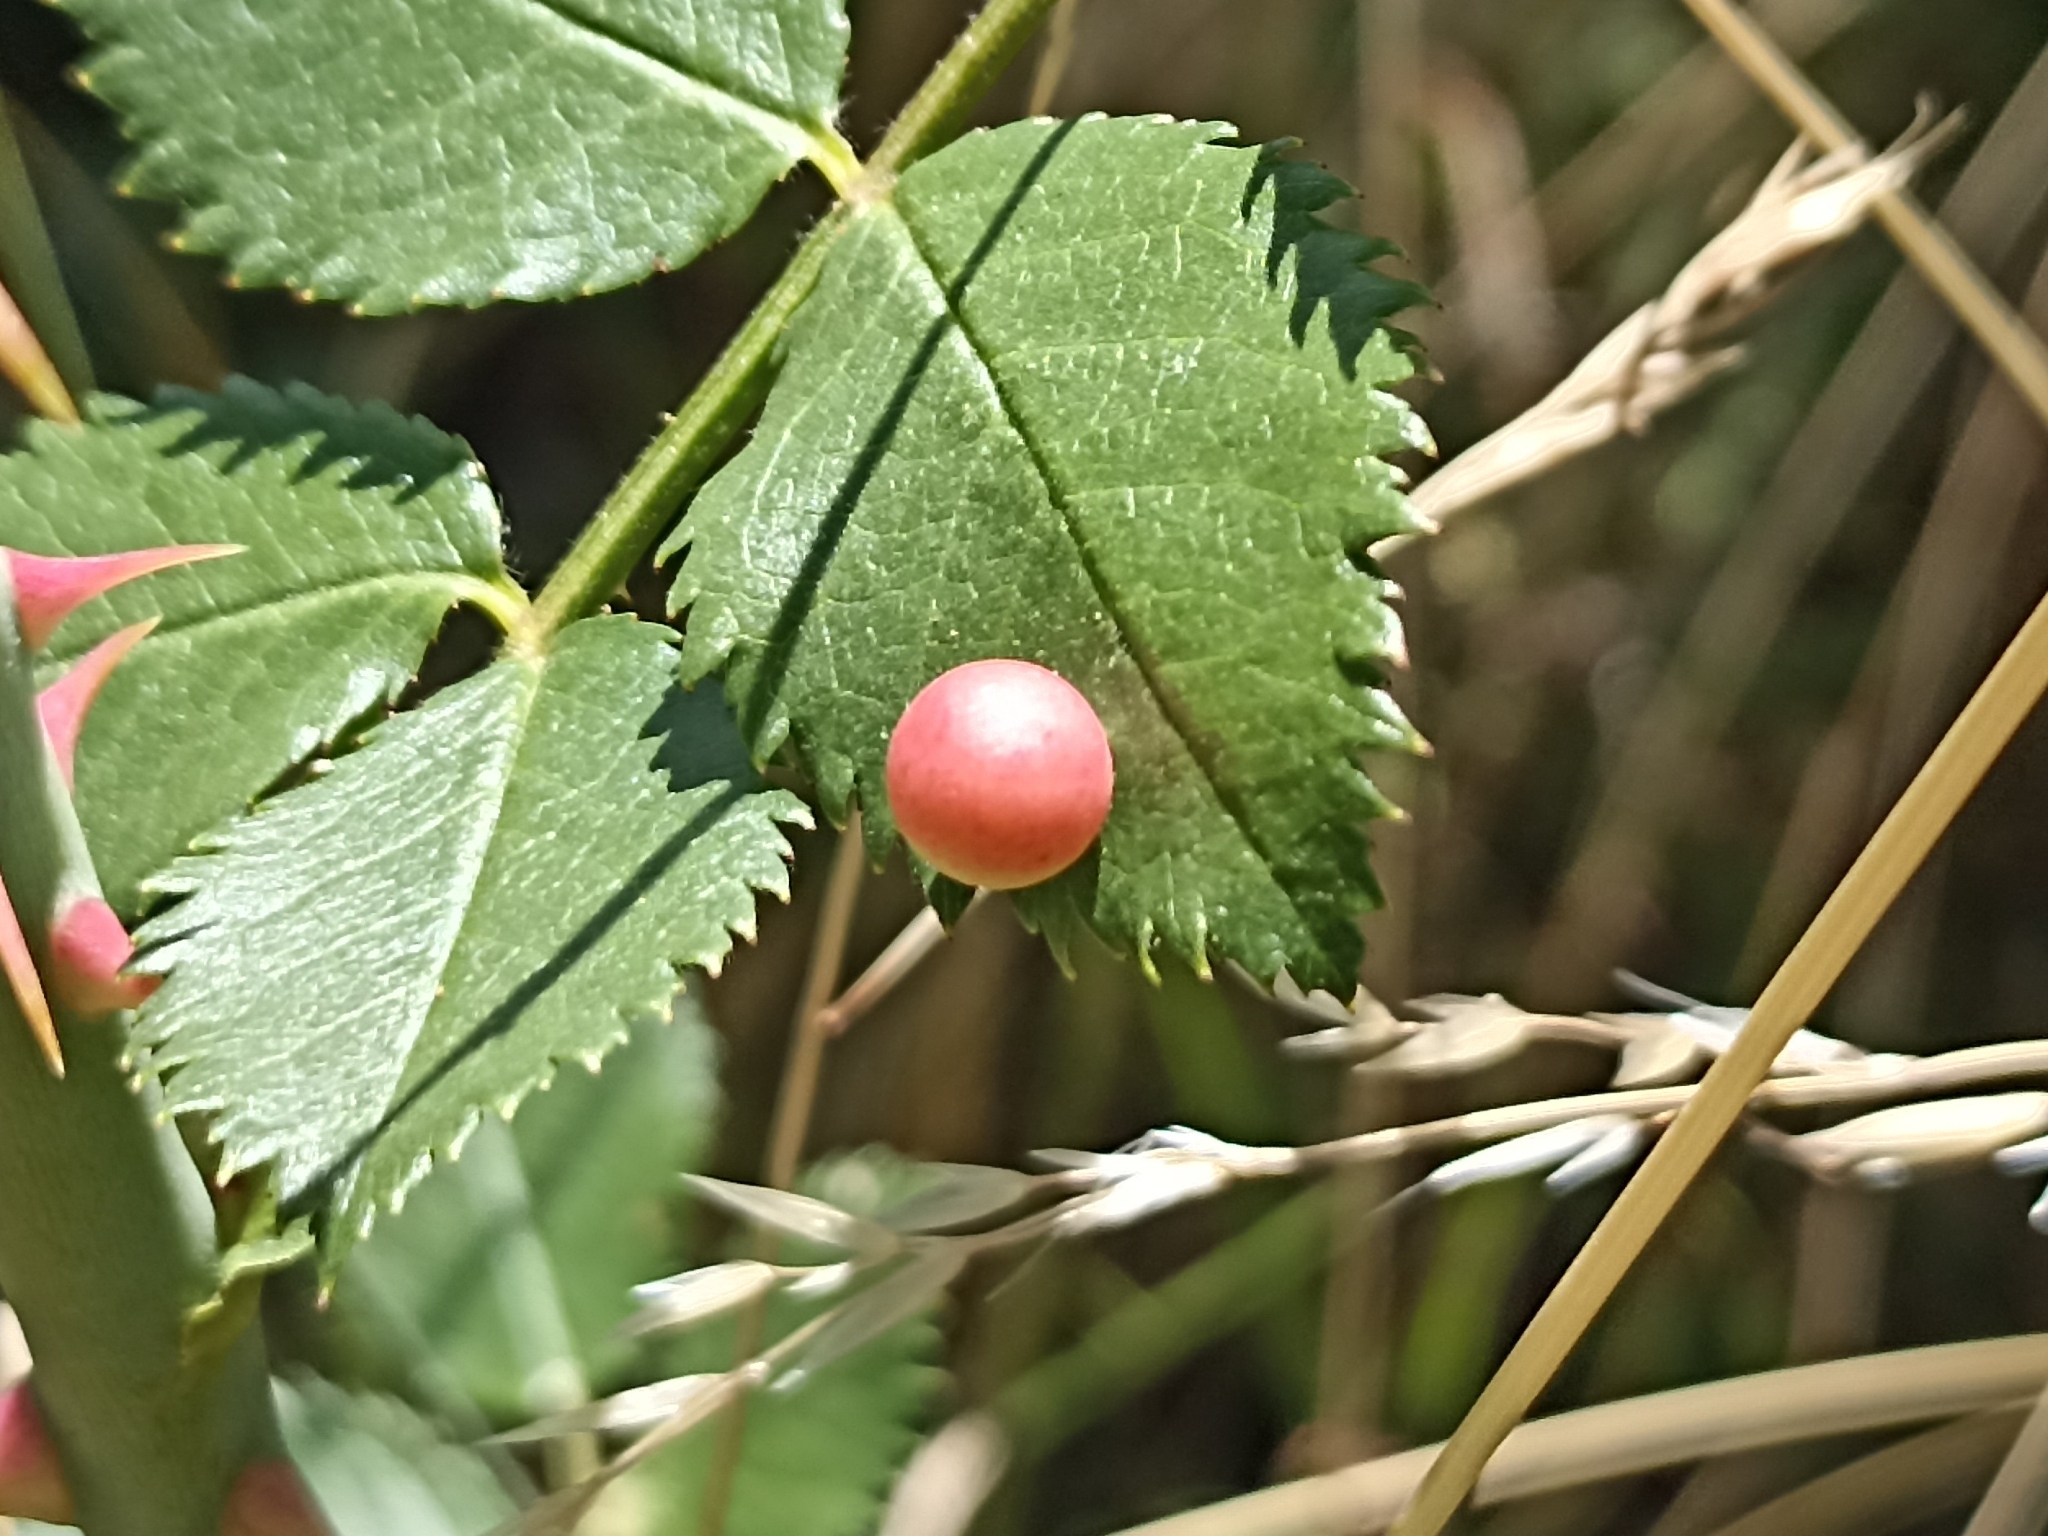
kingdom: Animalia
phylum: Arthropoda
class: Insecta
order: Hymenoptera
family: Cynipidae
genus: Diplolepis
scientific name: Diplolepis eglanteriae
